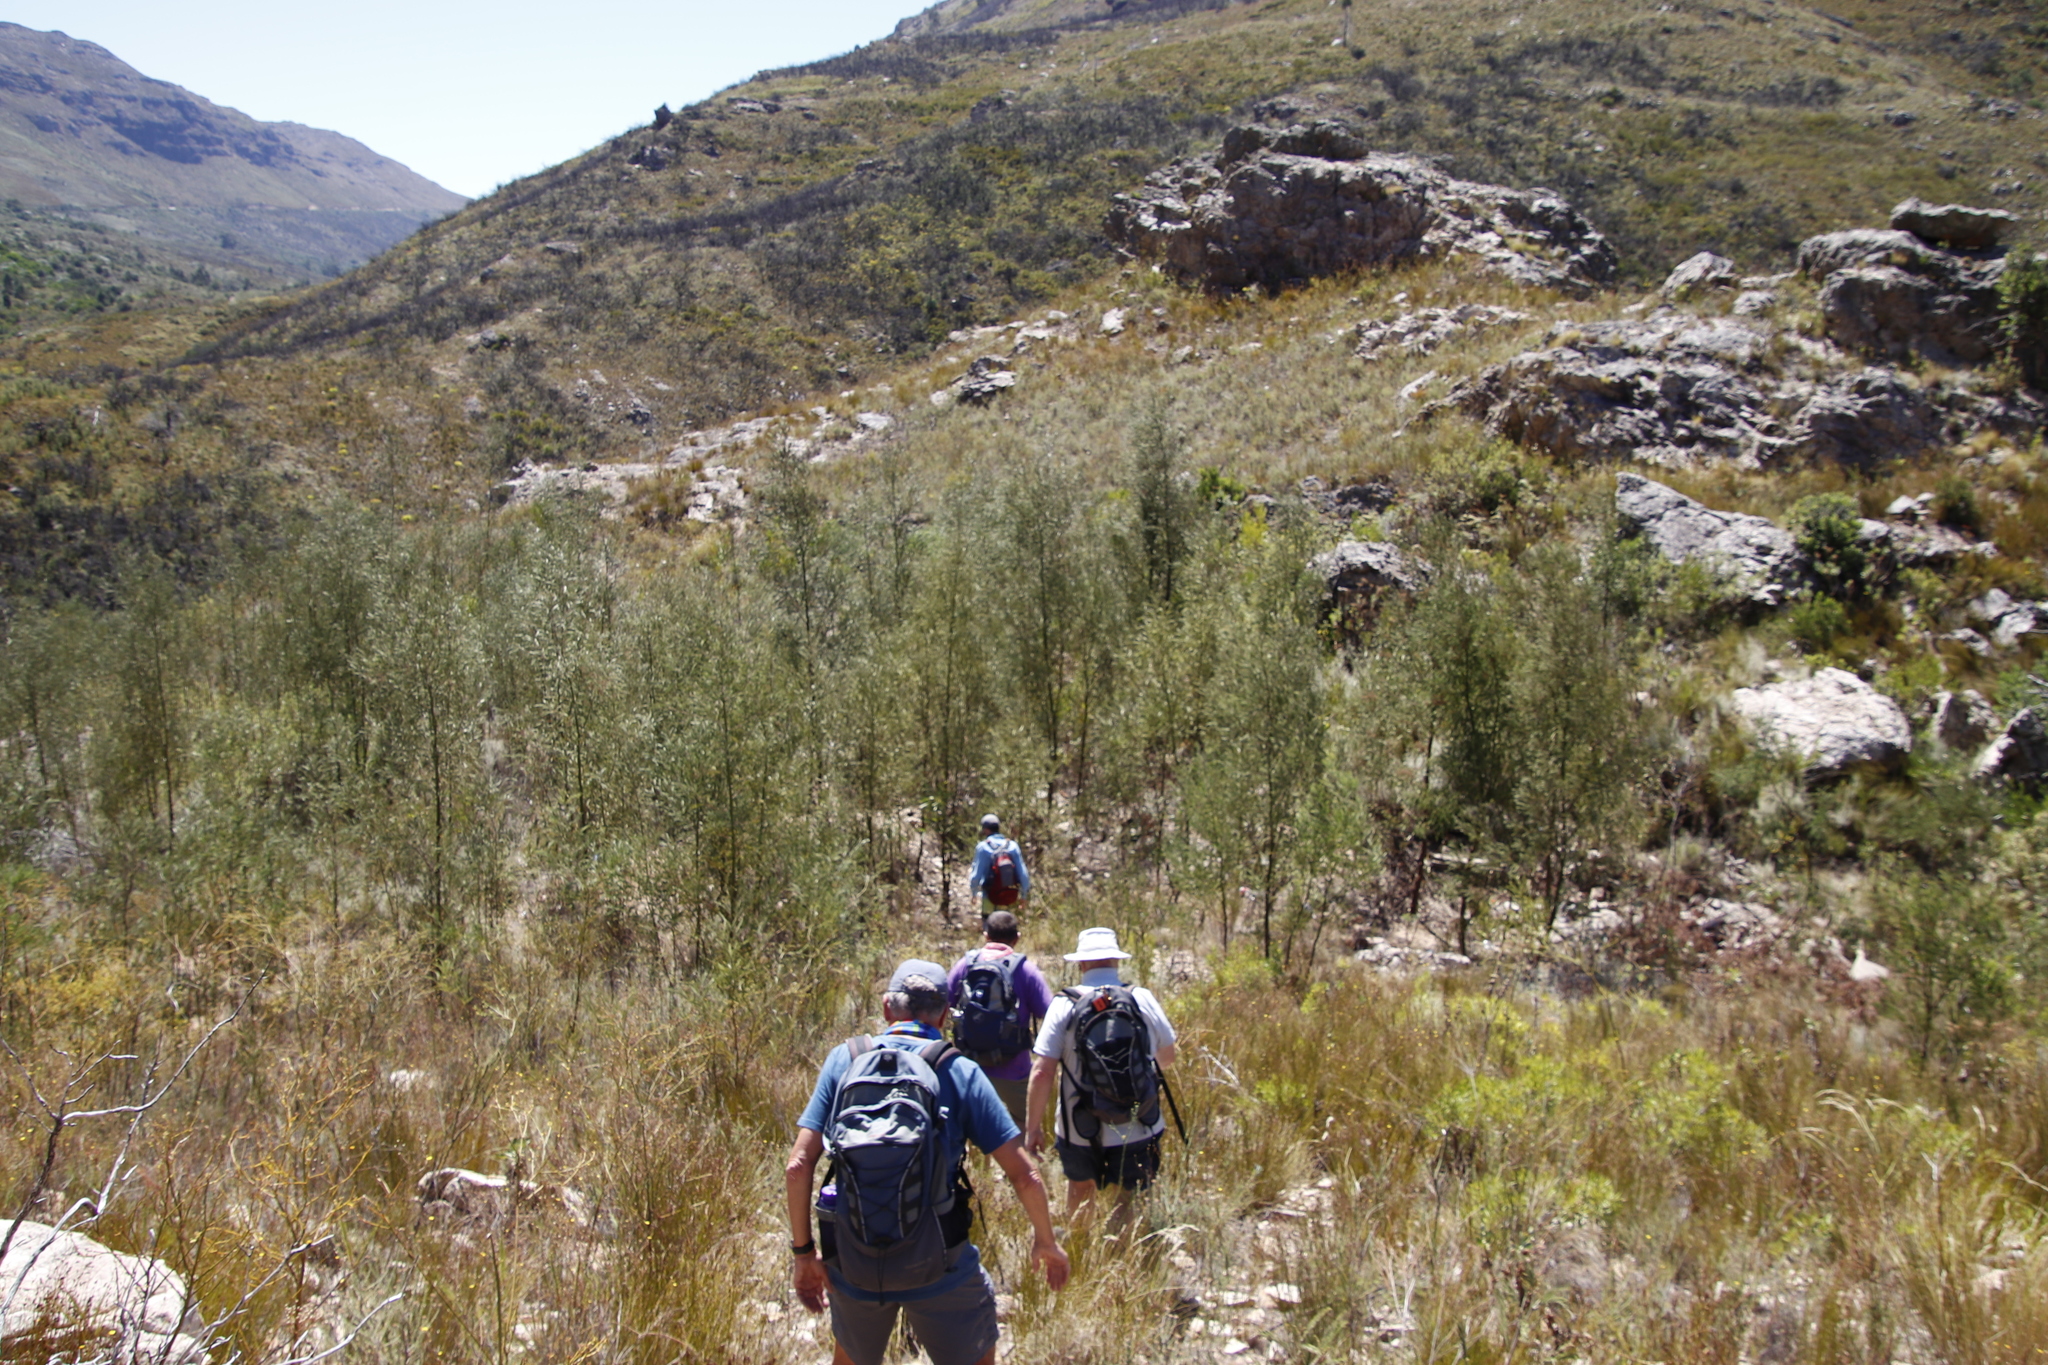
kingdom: Plantae
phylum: Tracheophyta
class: Magnoliopsida
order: Fabales
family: Fabaceae
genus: Acacia
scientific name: Acacia mearnsii
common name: Black wattle
